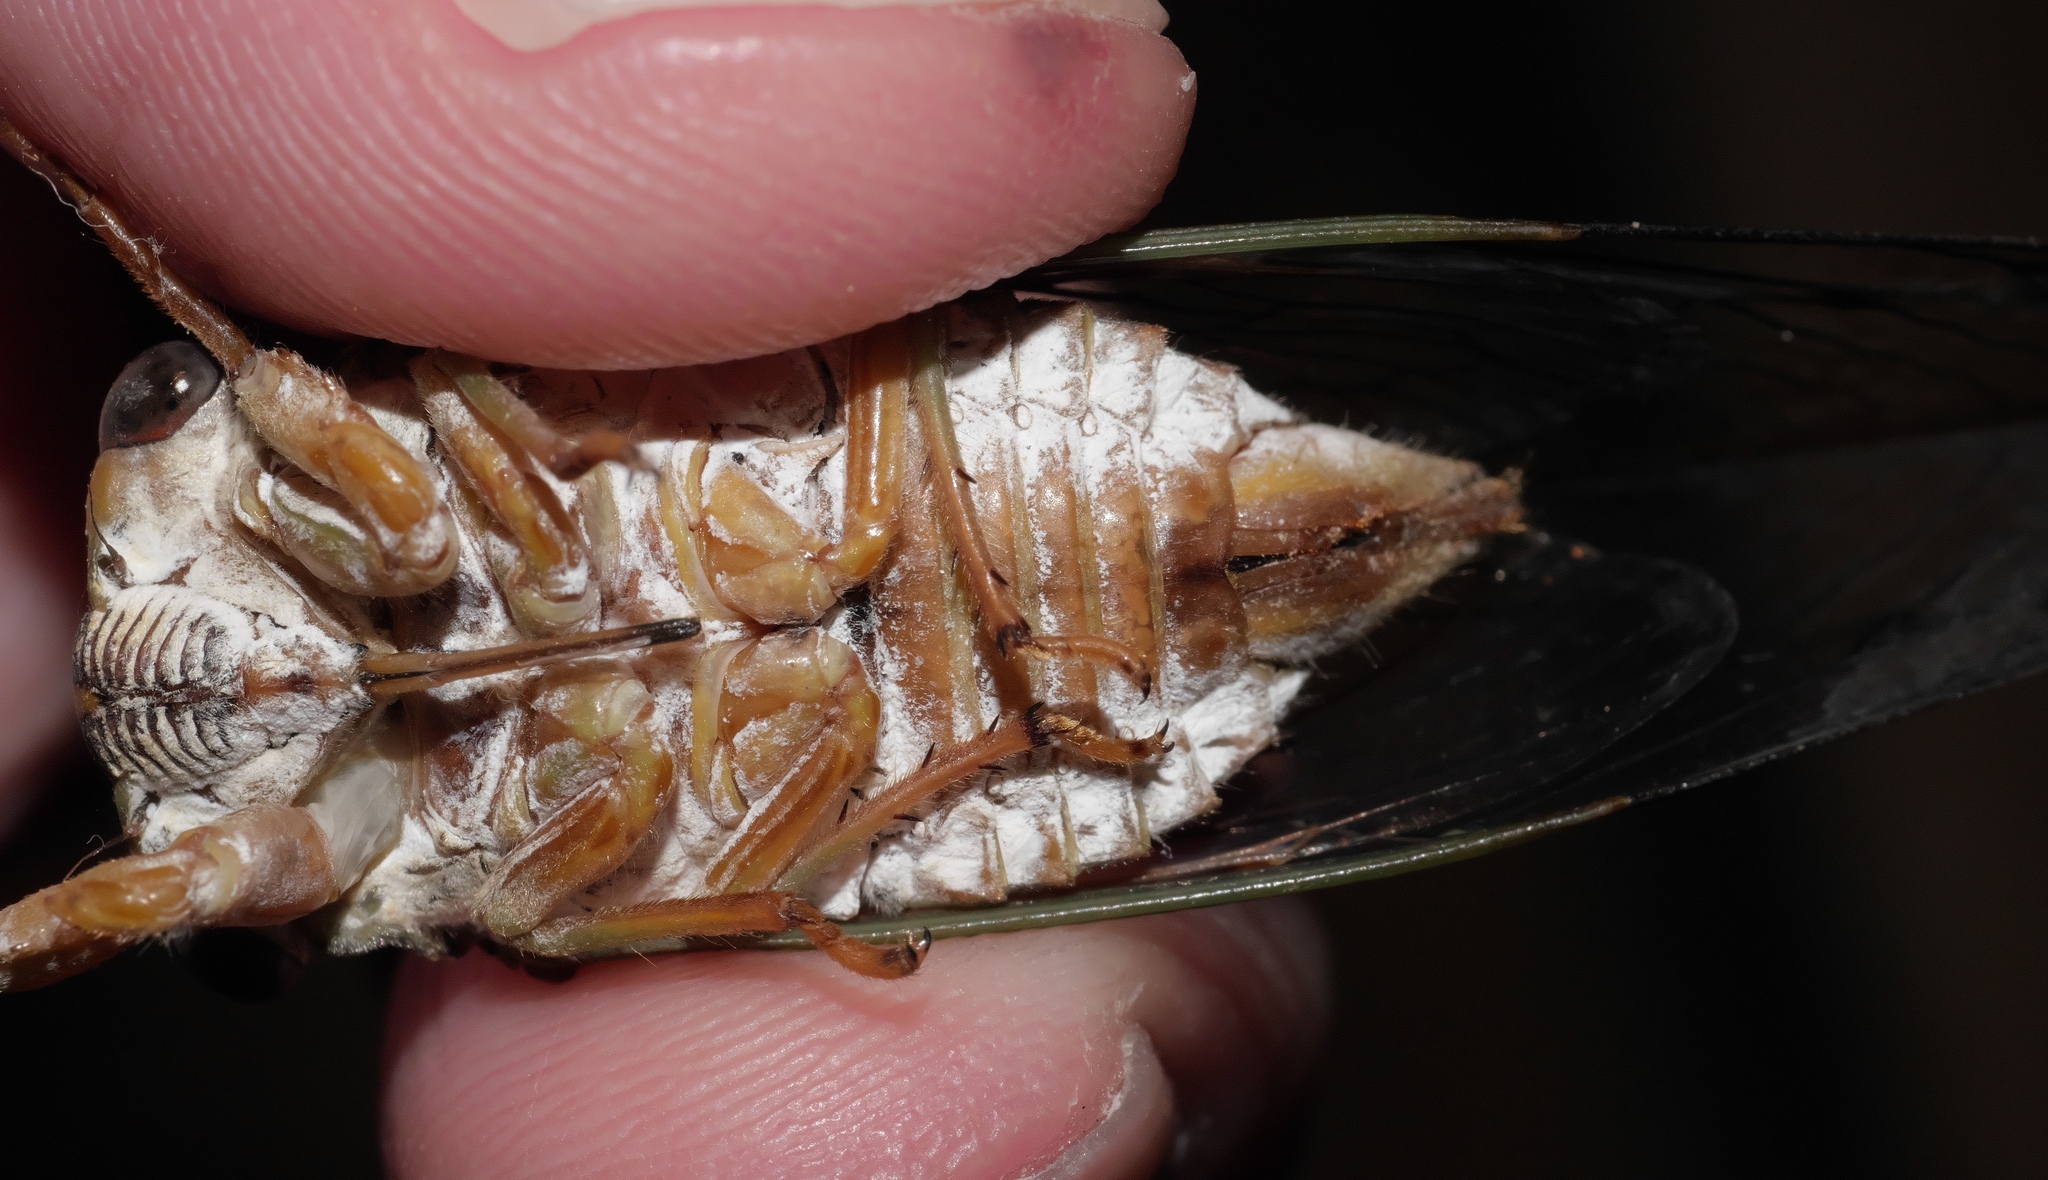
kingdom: Animalia
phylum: Arthropoda
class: Insecta
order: Hemiptera
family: Cicadidae
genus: Neotibicen
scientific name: Neotibicen pruinosus
